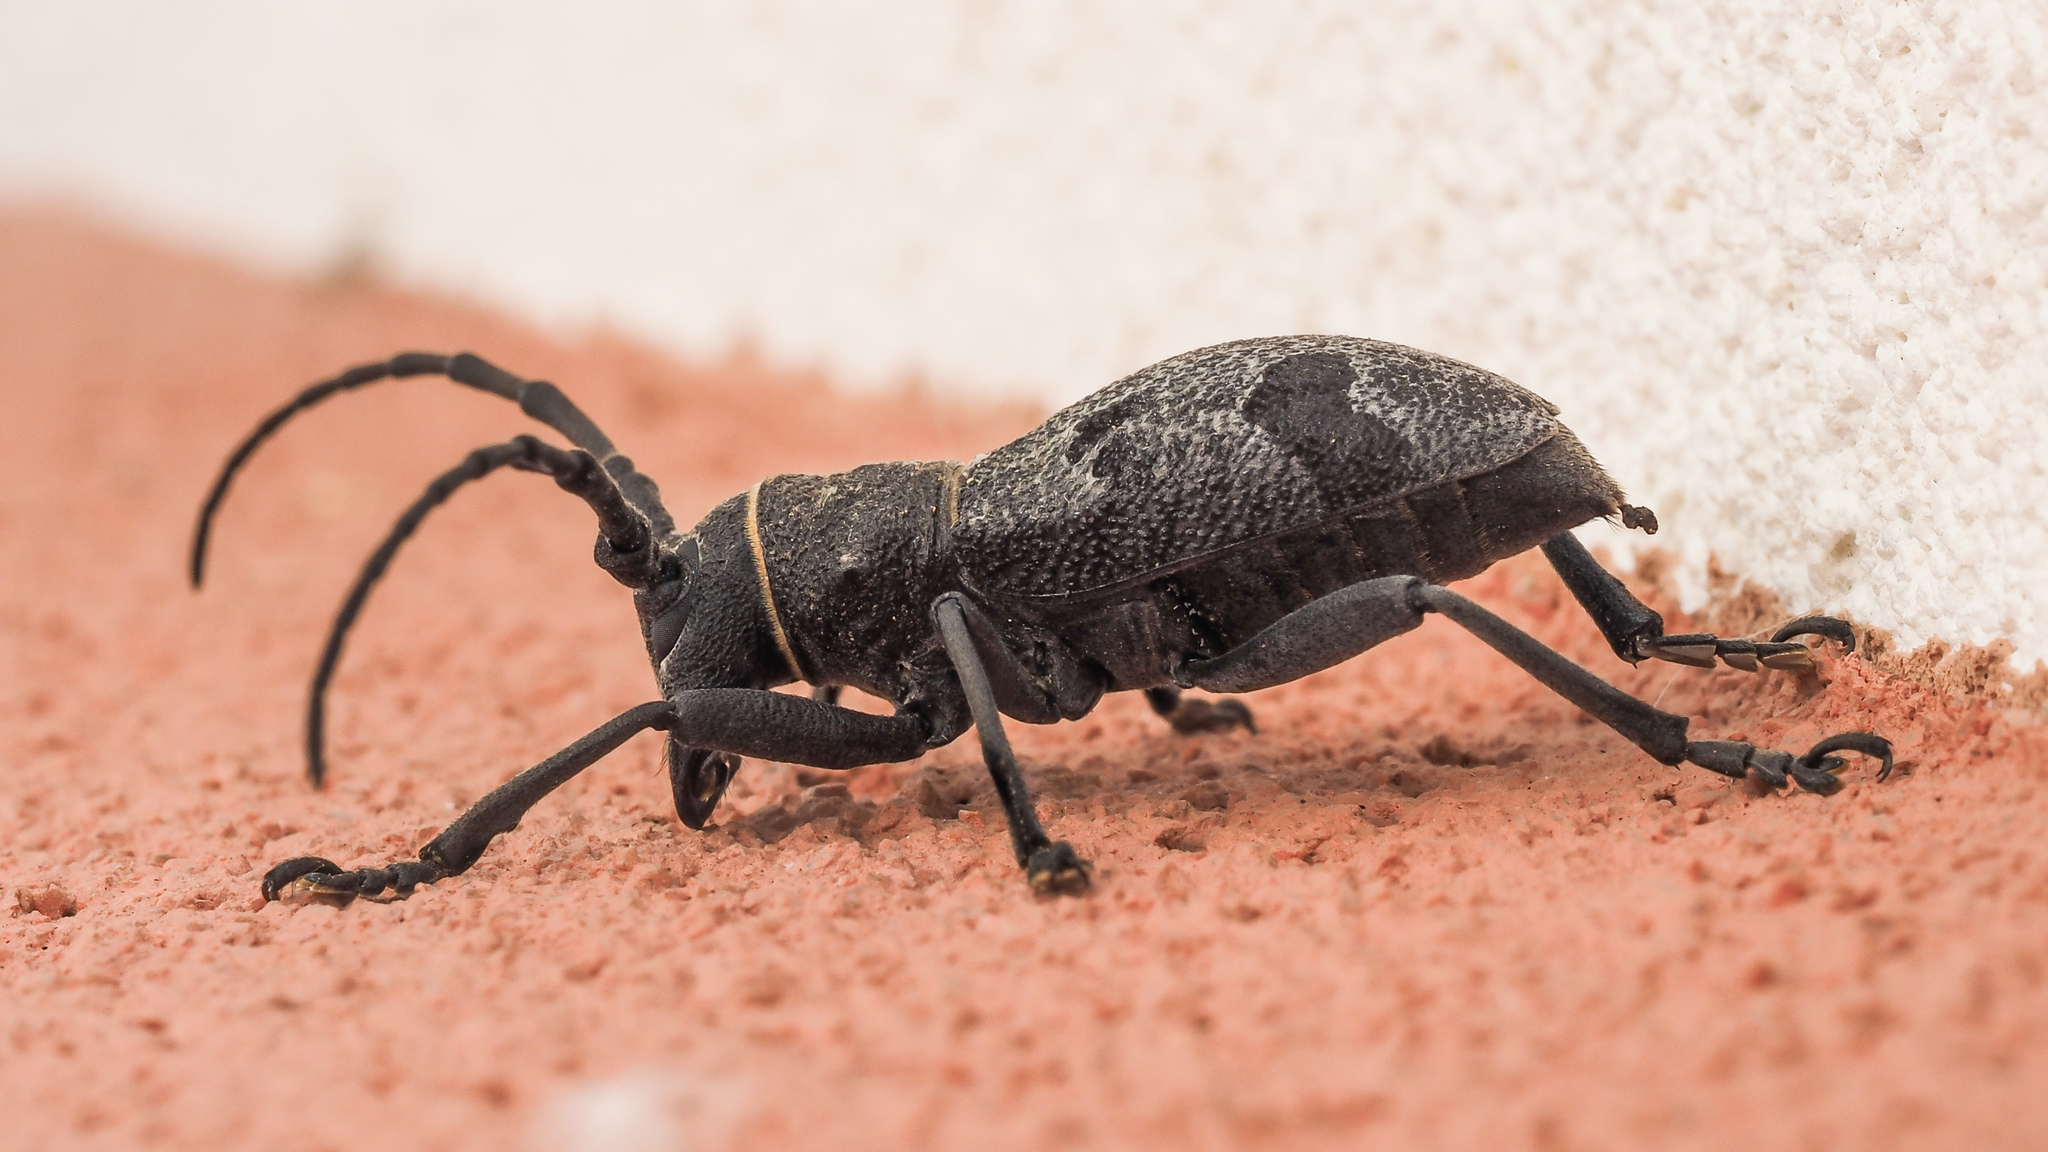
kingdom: Animalia
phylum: Arthropoda
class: Insecta
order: Coleoptera
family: Cerambycidae
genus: Morimus
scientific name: Morimus asper
